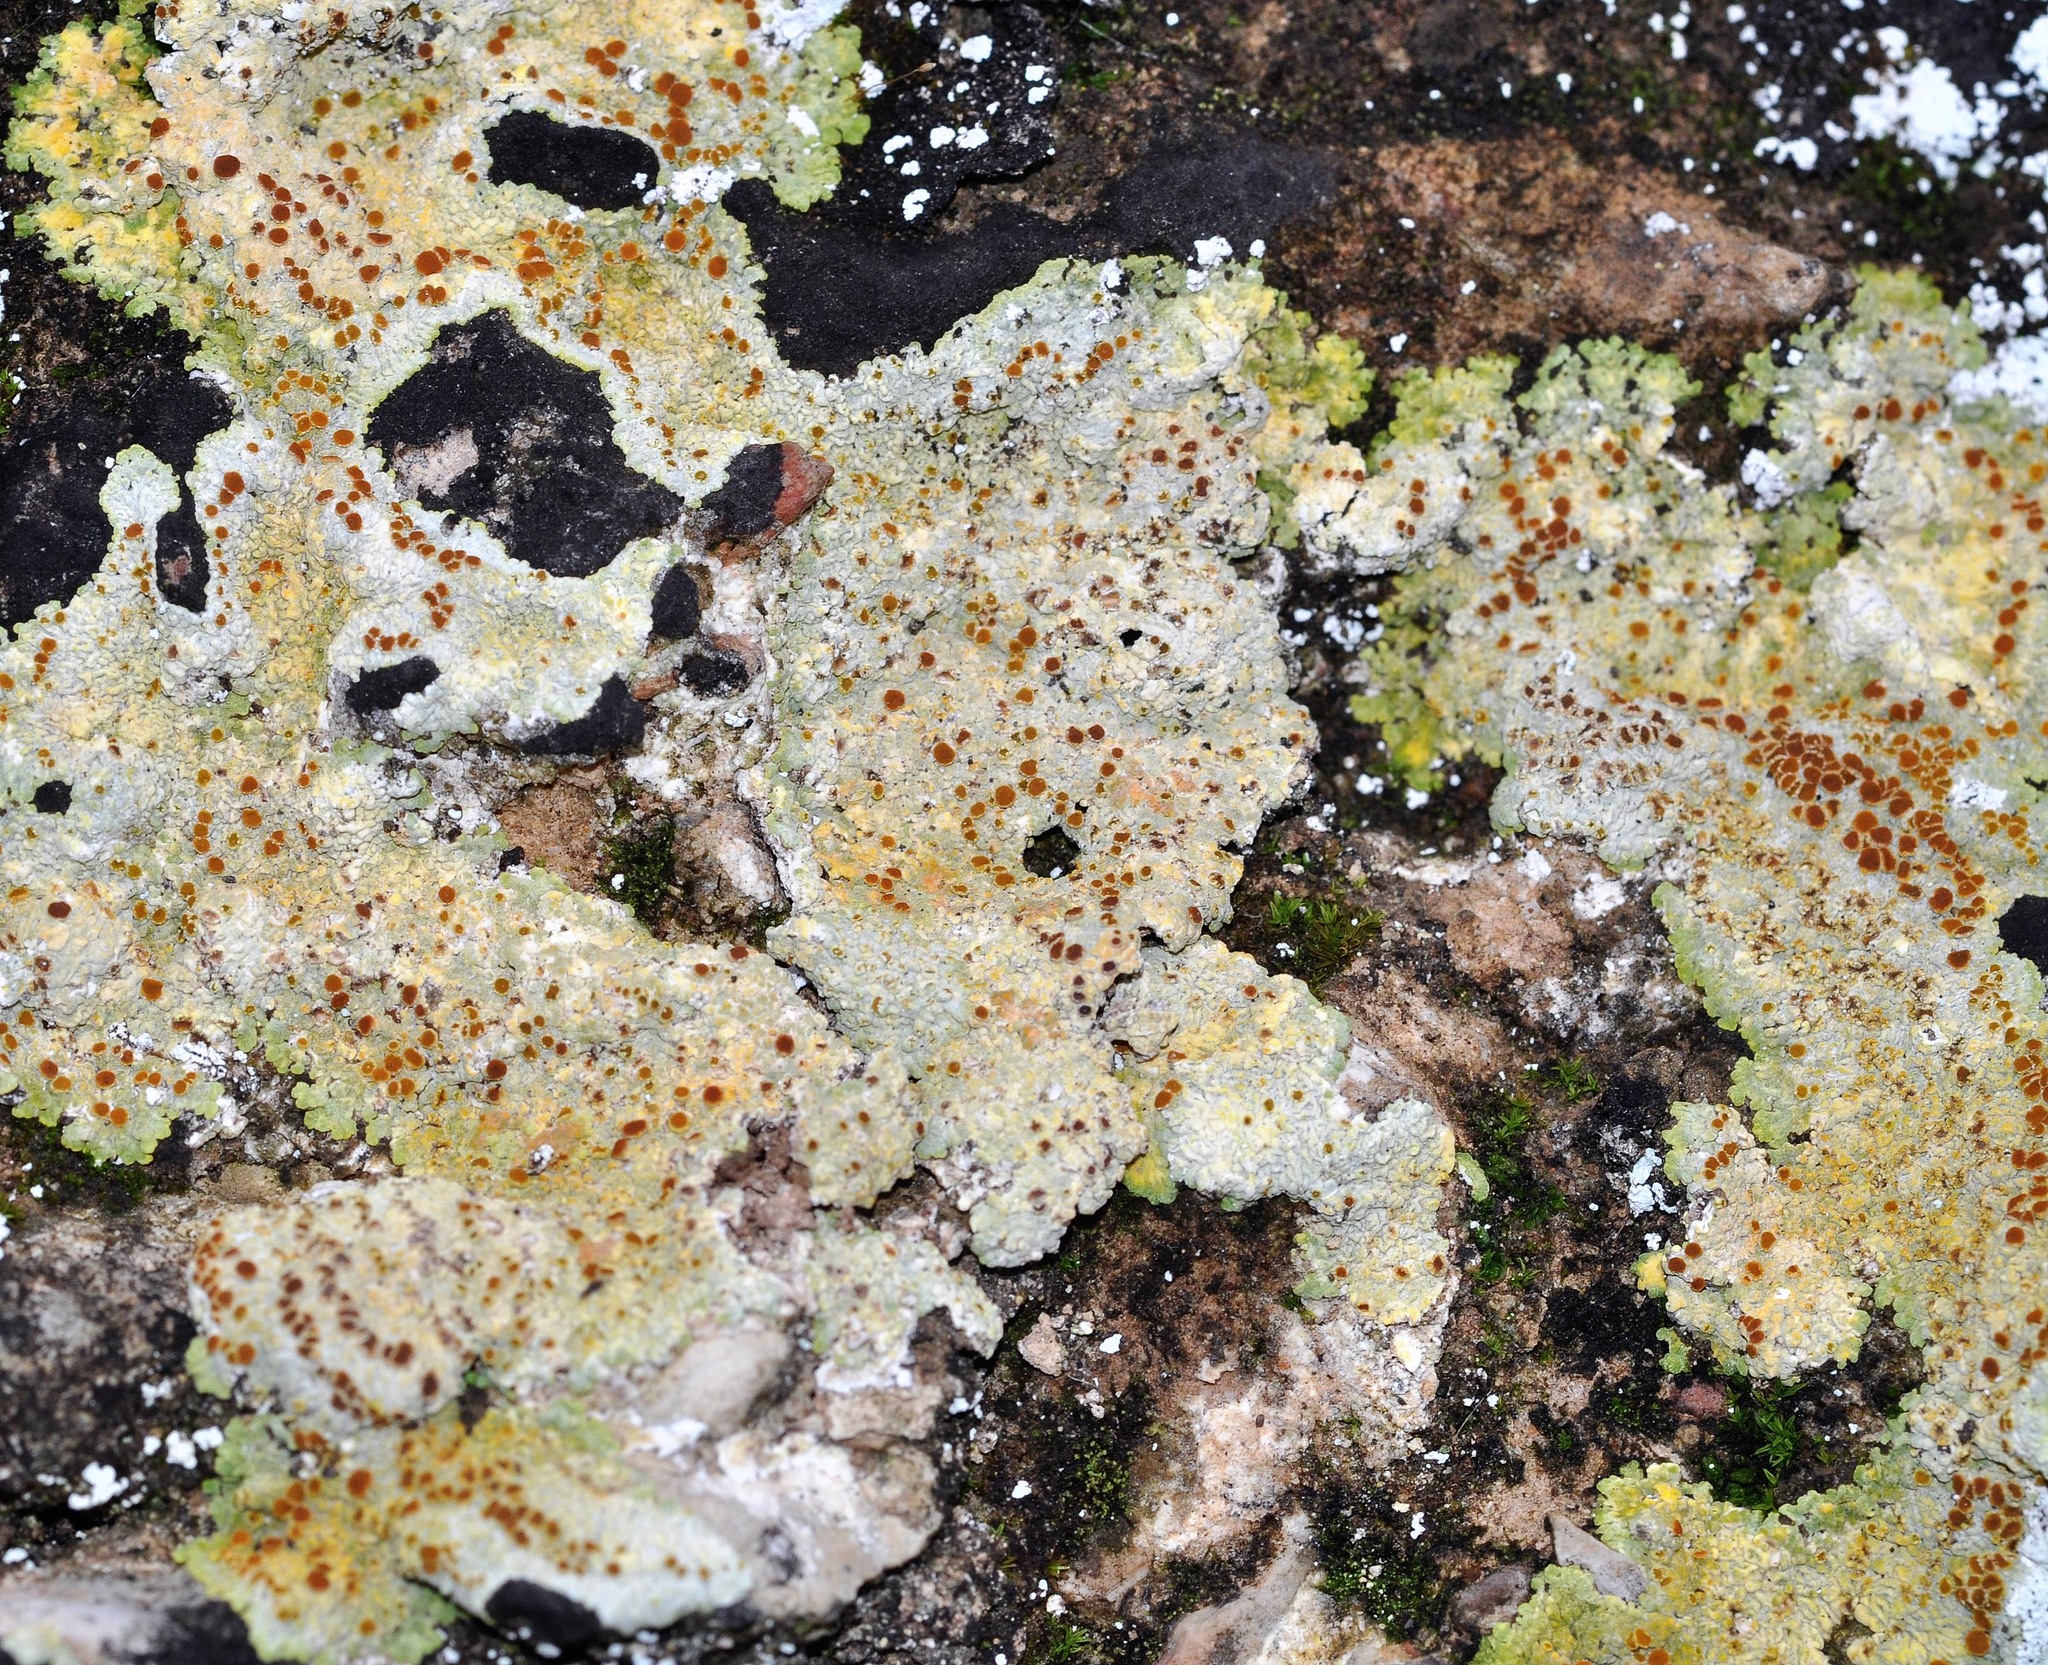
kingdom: Fungi
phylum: Ascomycota
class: Lecanoromycetes
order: Teloschistales
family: Teloschistaceae
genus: Gyalolechia
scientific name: Gyalolechia fulgens
